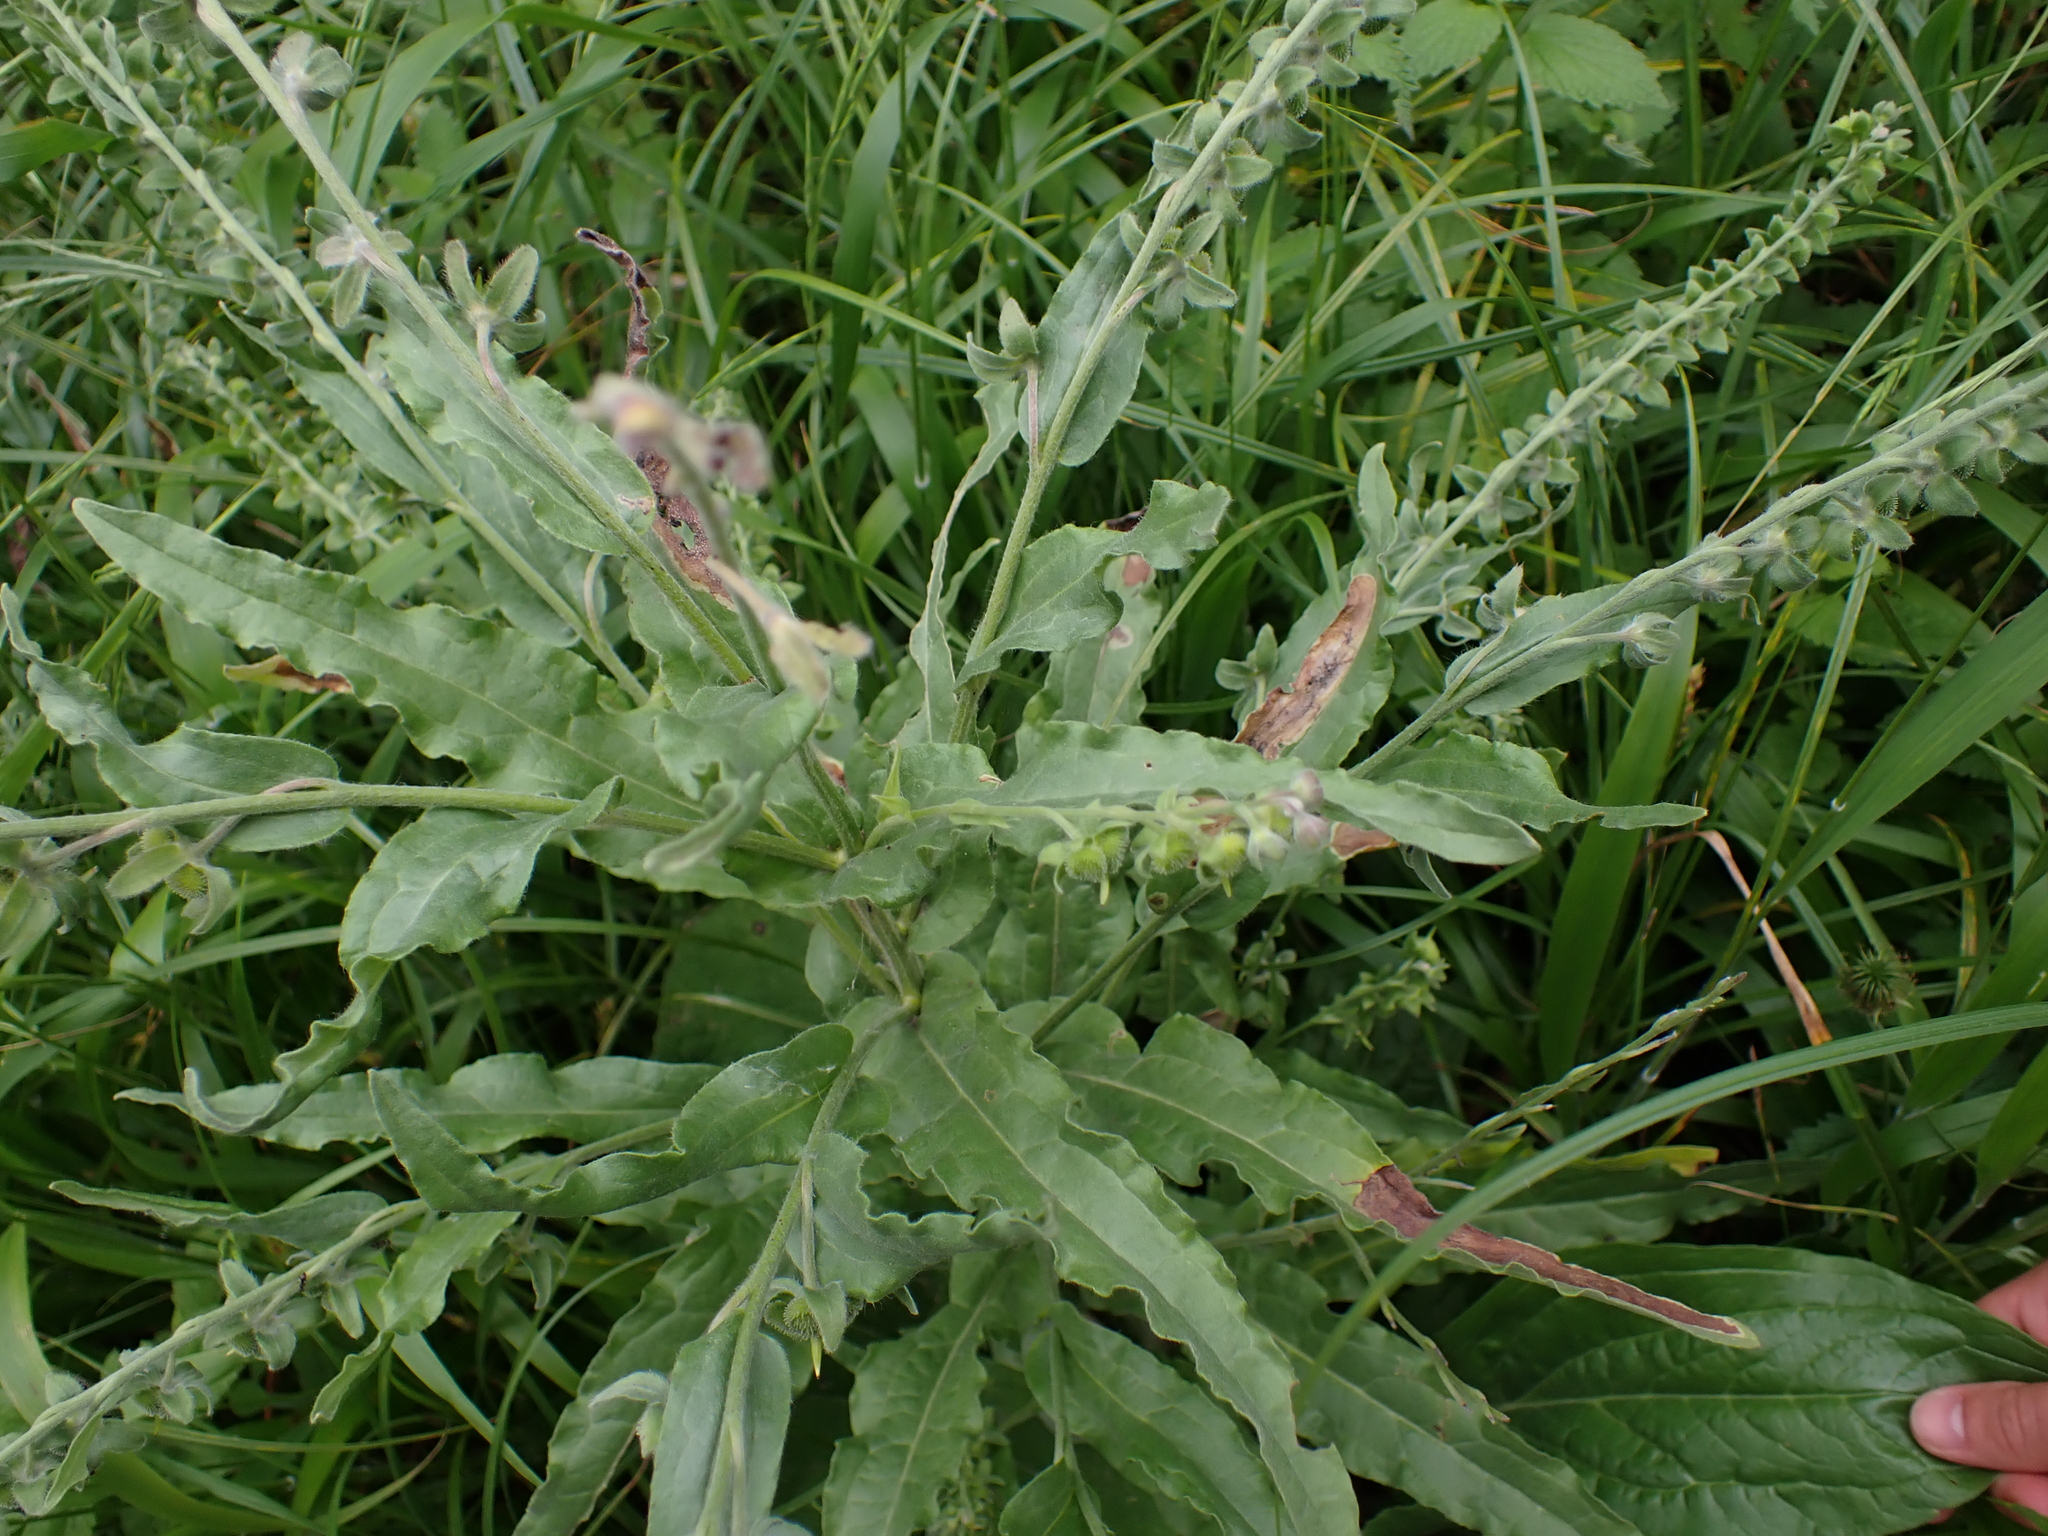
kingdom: Plantae
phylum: Tracheophyta
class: Magnoliopsida
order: Boraginales
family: Boraginaceae
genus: Cynoglossum
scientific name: Cynoglossum officinale
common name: Hound's-tongue
